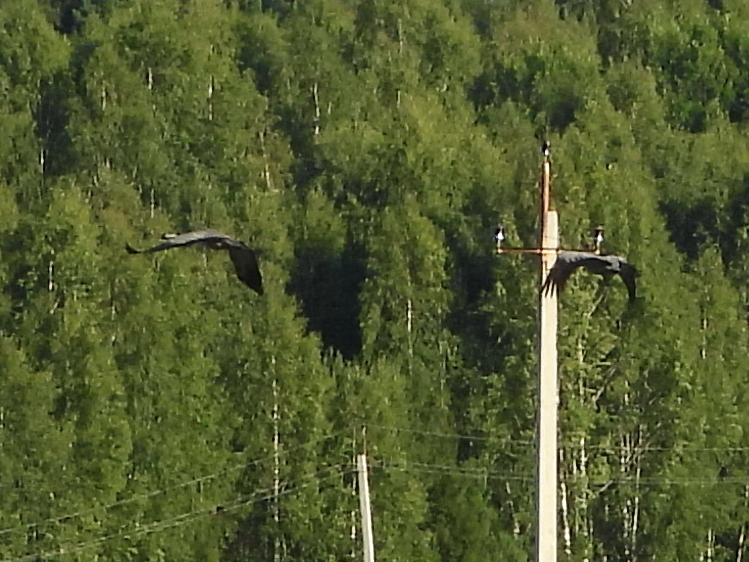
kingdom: Animalia
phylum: Chordata
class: Aves
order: Gruiformes
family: Gruidae
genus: Grus
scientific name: Grus grus
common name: Common crane
